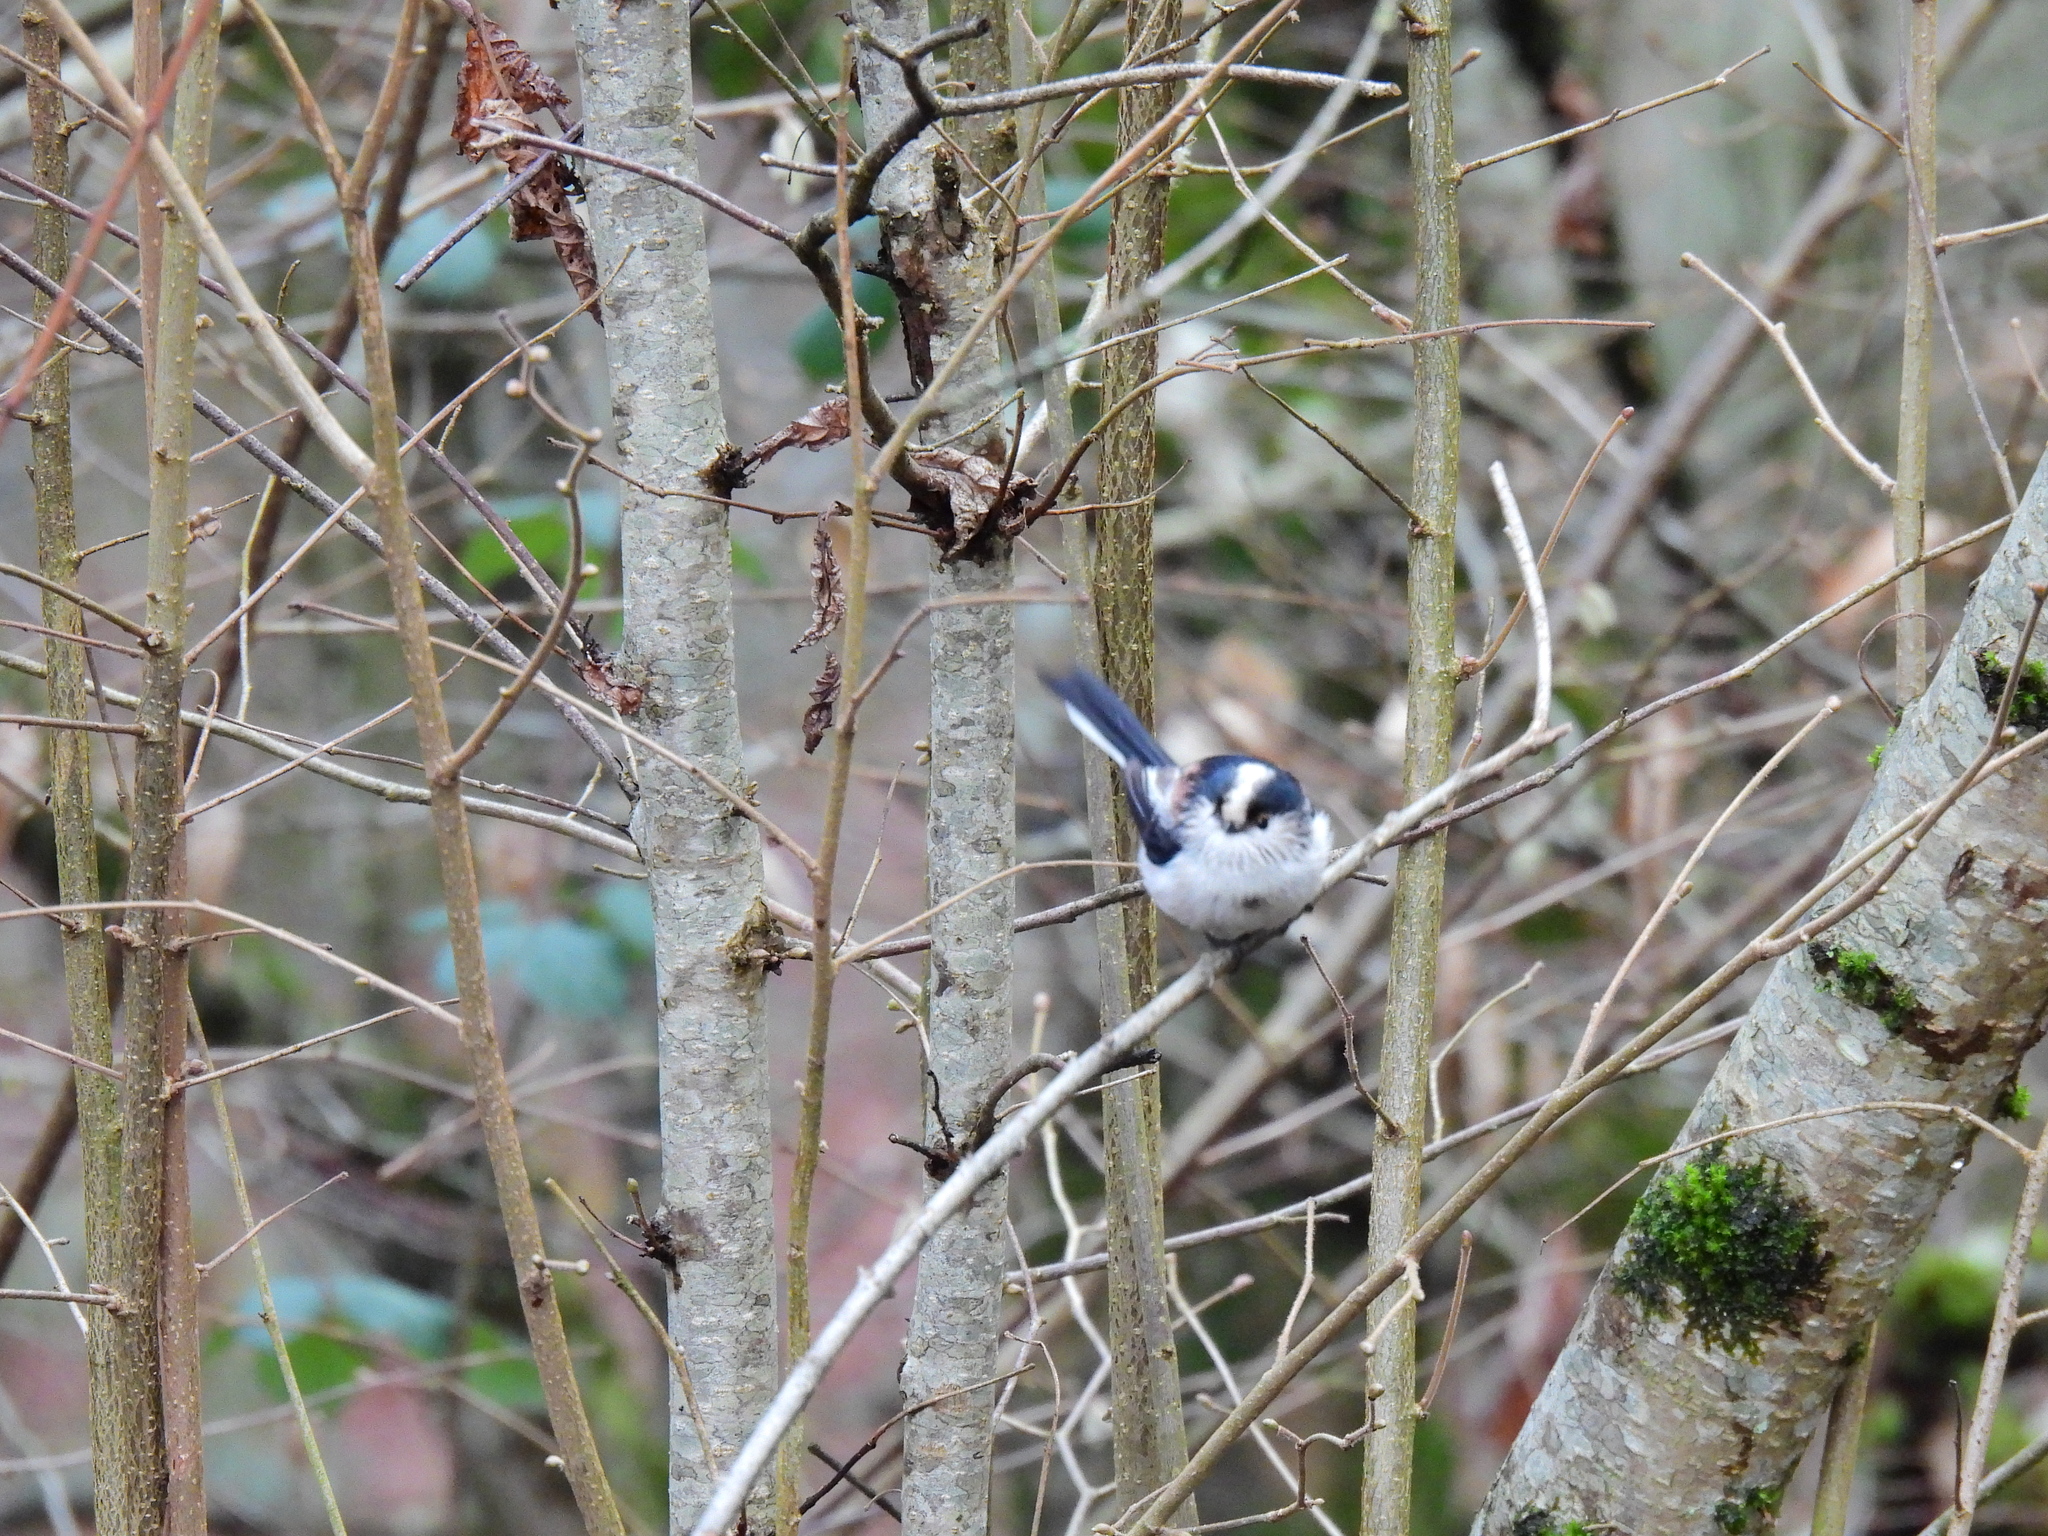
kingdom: Animalia
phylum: Chordata
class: Aves
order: Passeriformes
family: Aegithalidae
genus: Aegithalos
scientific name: Aegithalos caudatus
